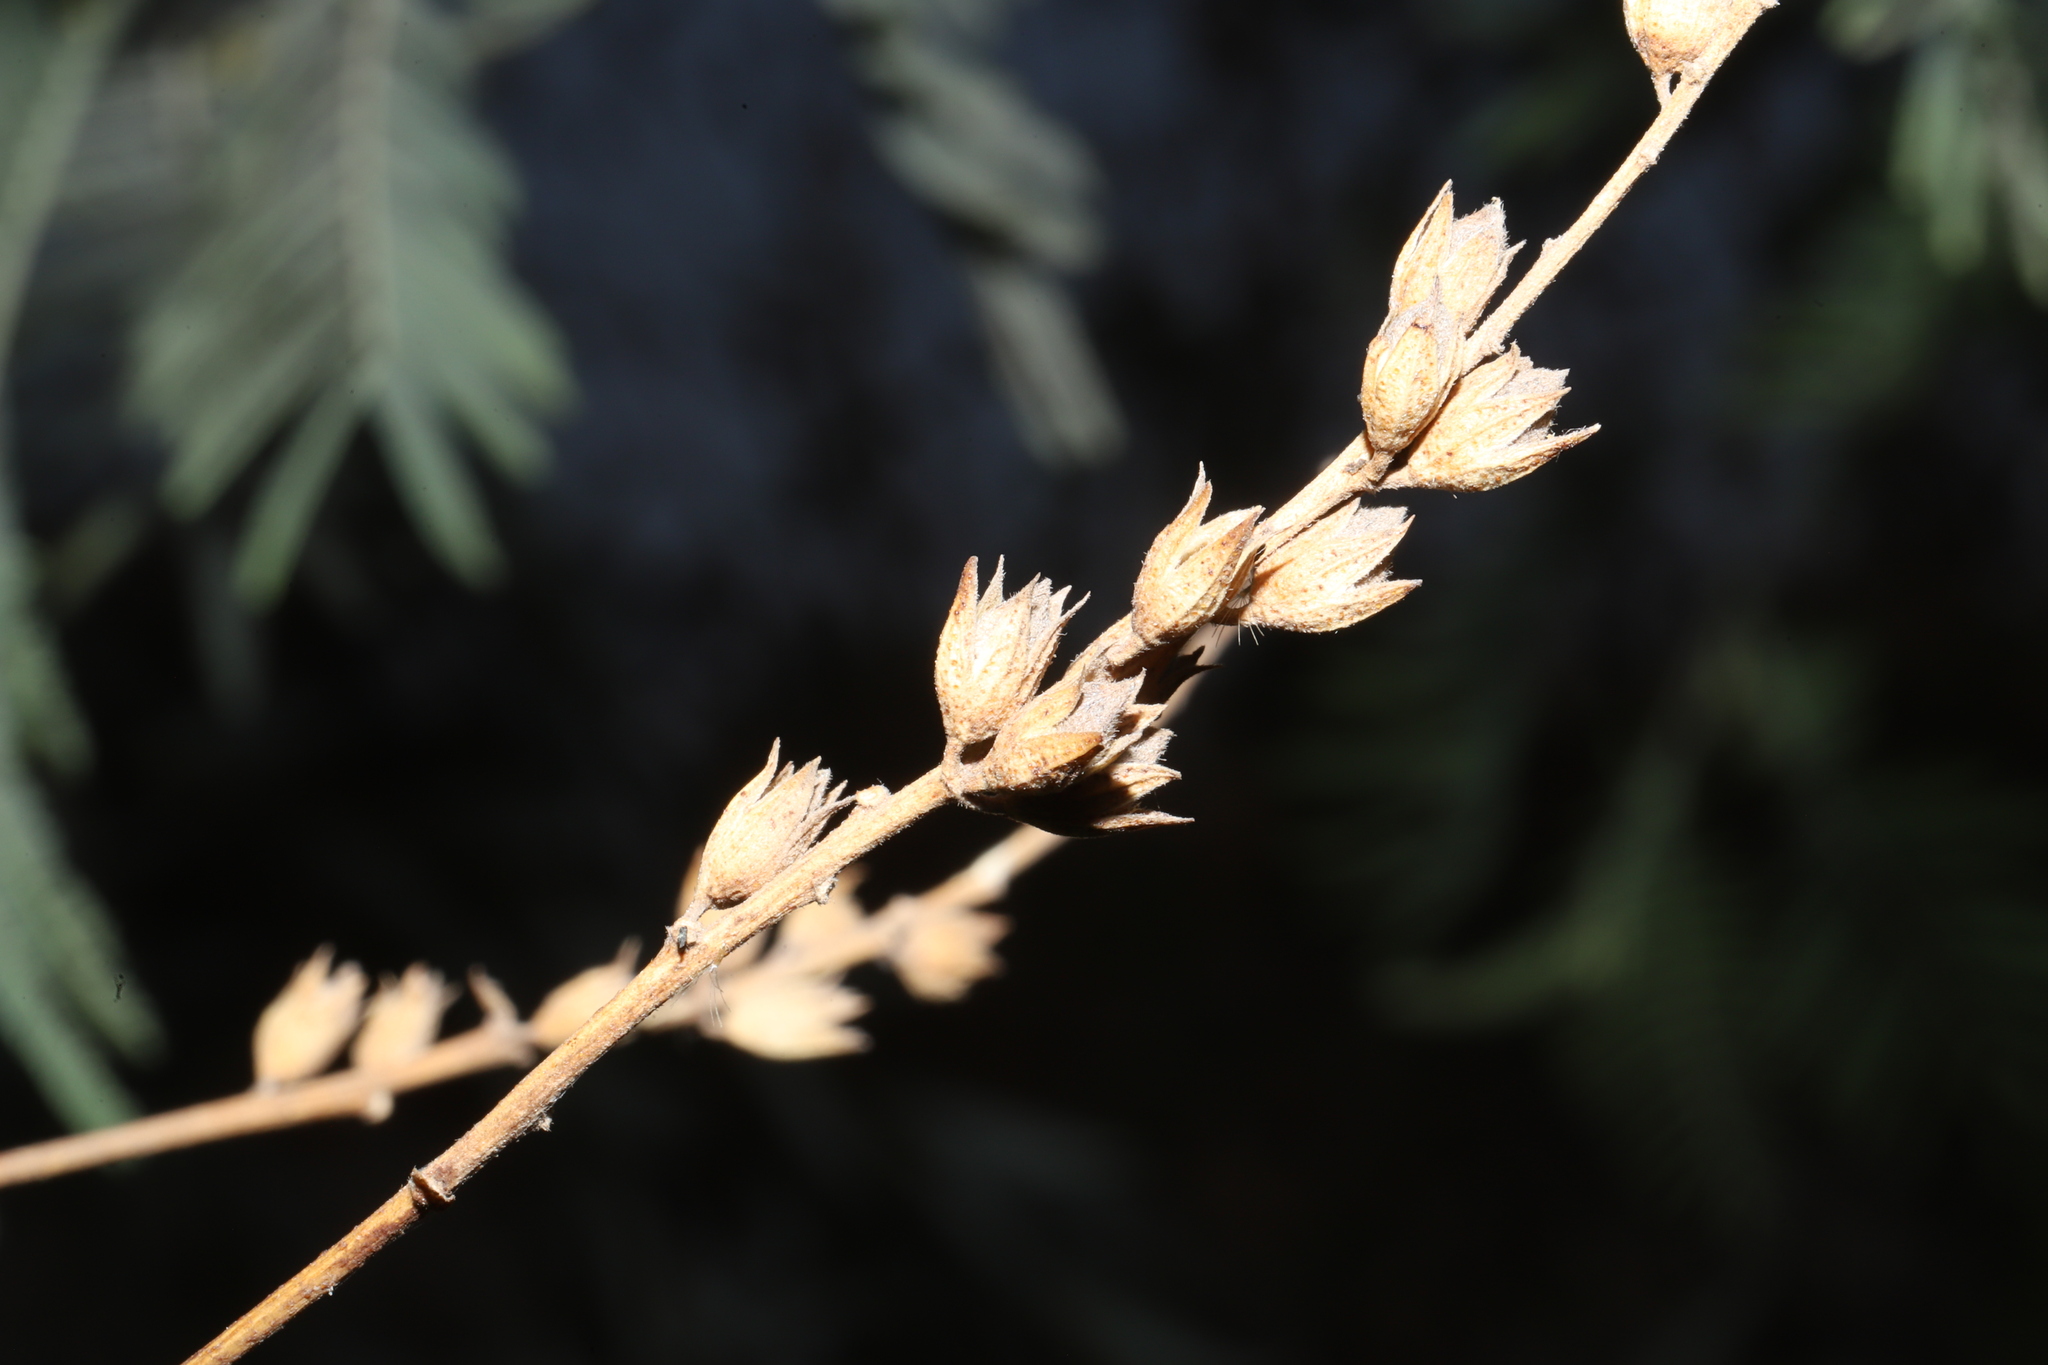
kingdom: Plantae
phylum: Tracheophyta
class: Magnoliopsida
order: Fabales
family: Fabaceae
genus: Psoralea
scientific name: Psoralea Otholobium glandulosum
